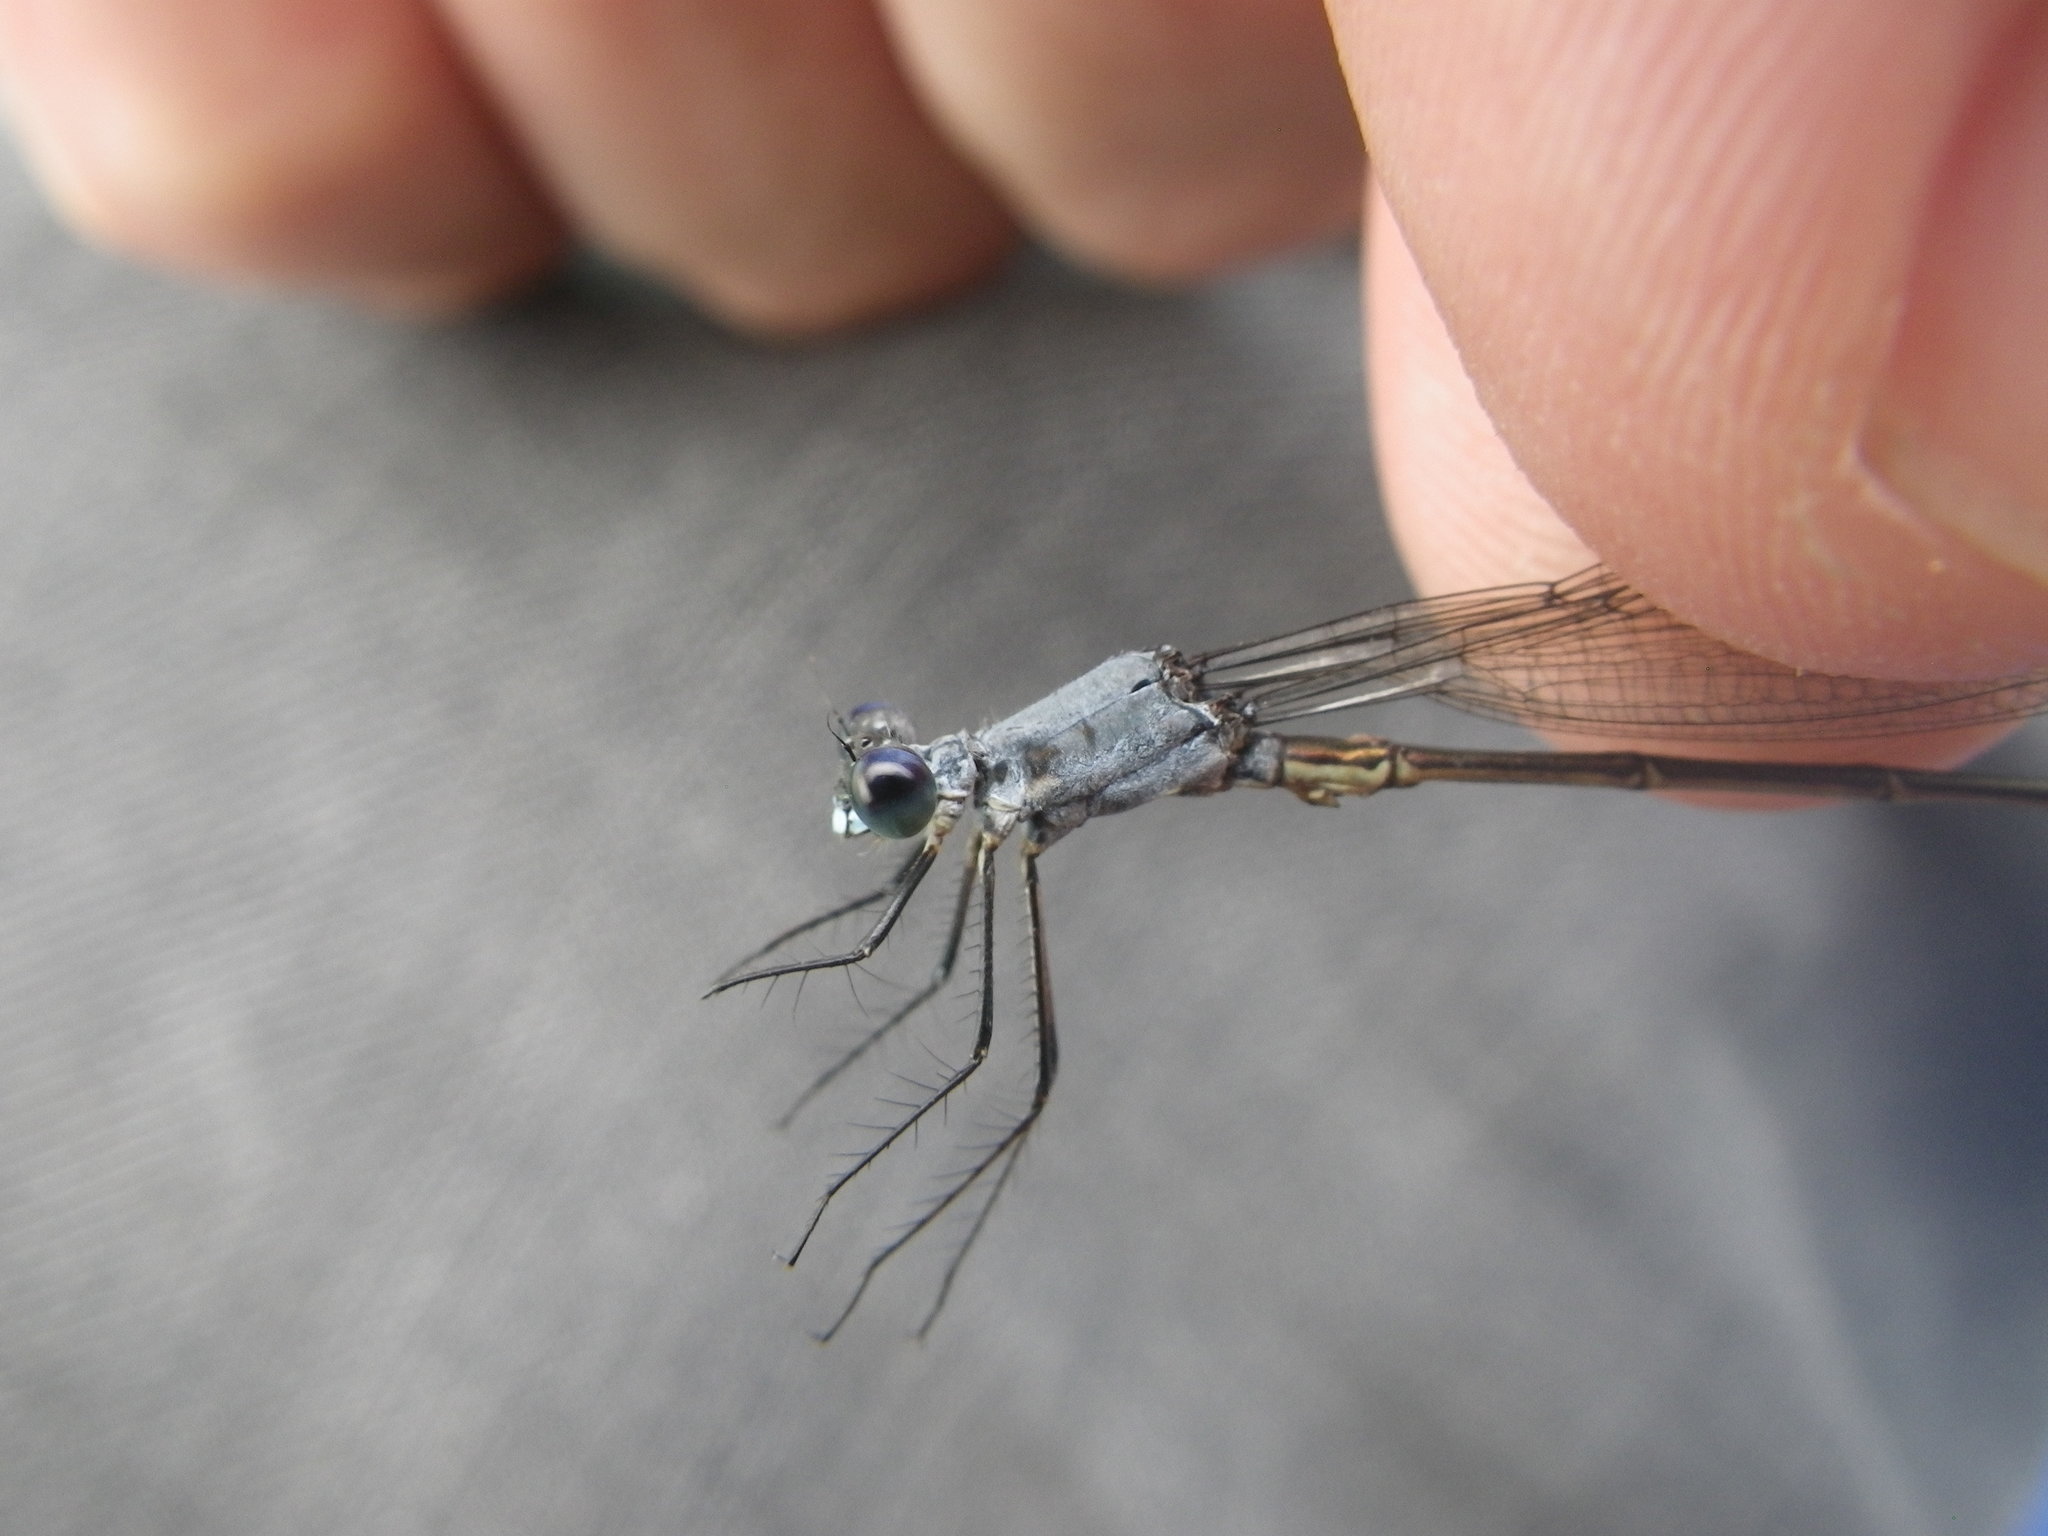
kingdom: Animalia
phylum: Arthropoda
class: Insecta
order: Odonata
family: Lestidae
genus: Lestes
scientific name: Lestes vigilax
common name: Swamp spreadwing
